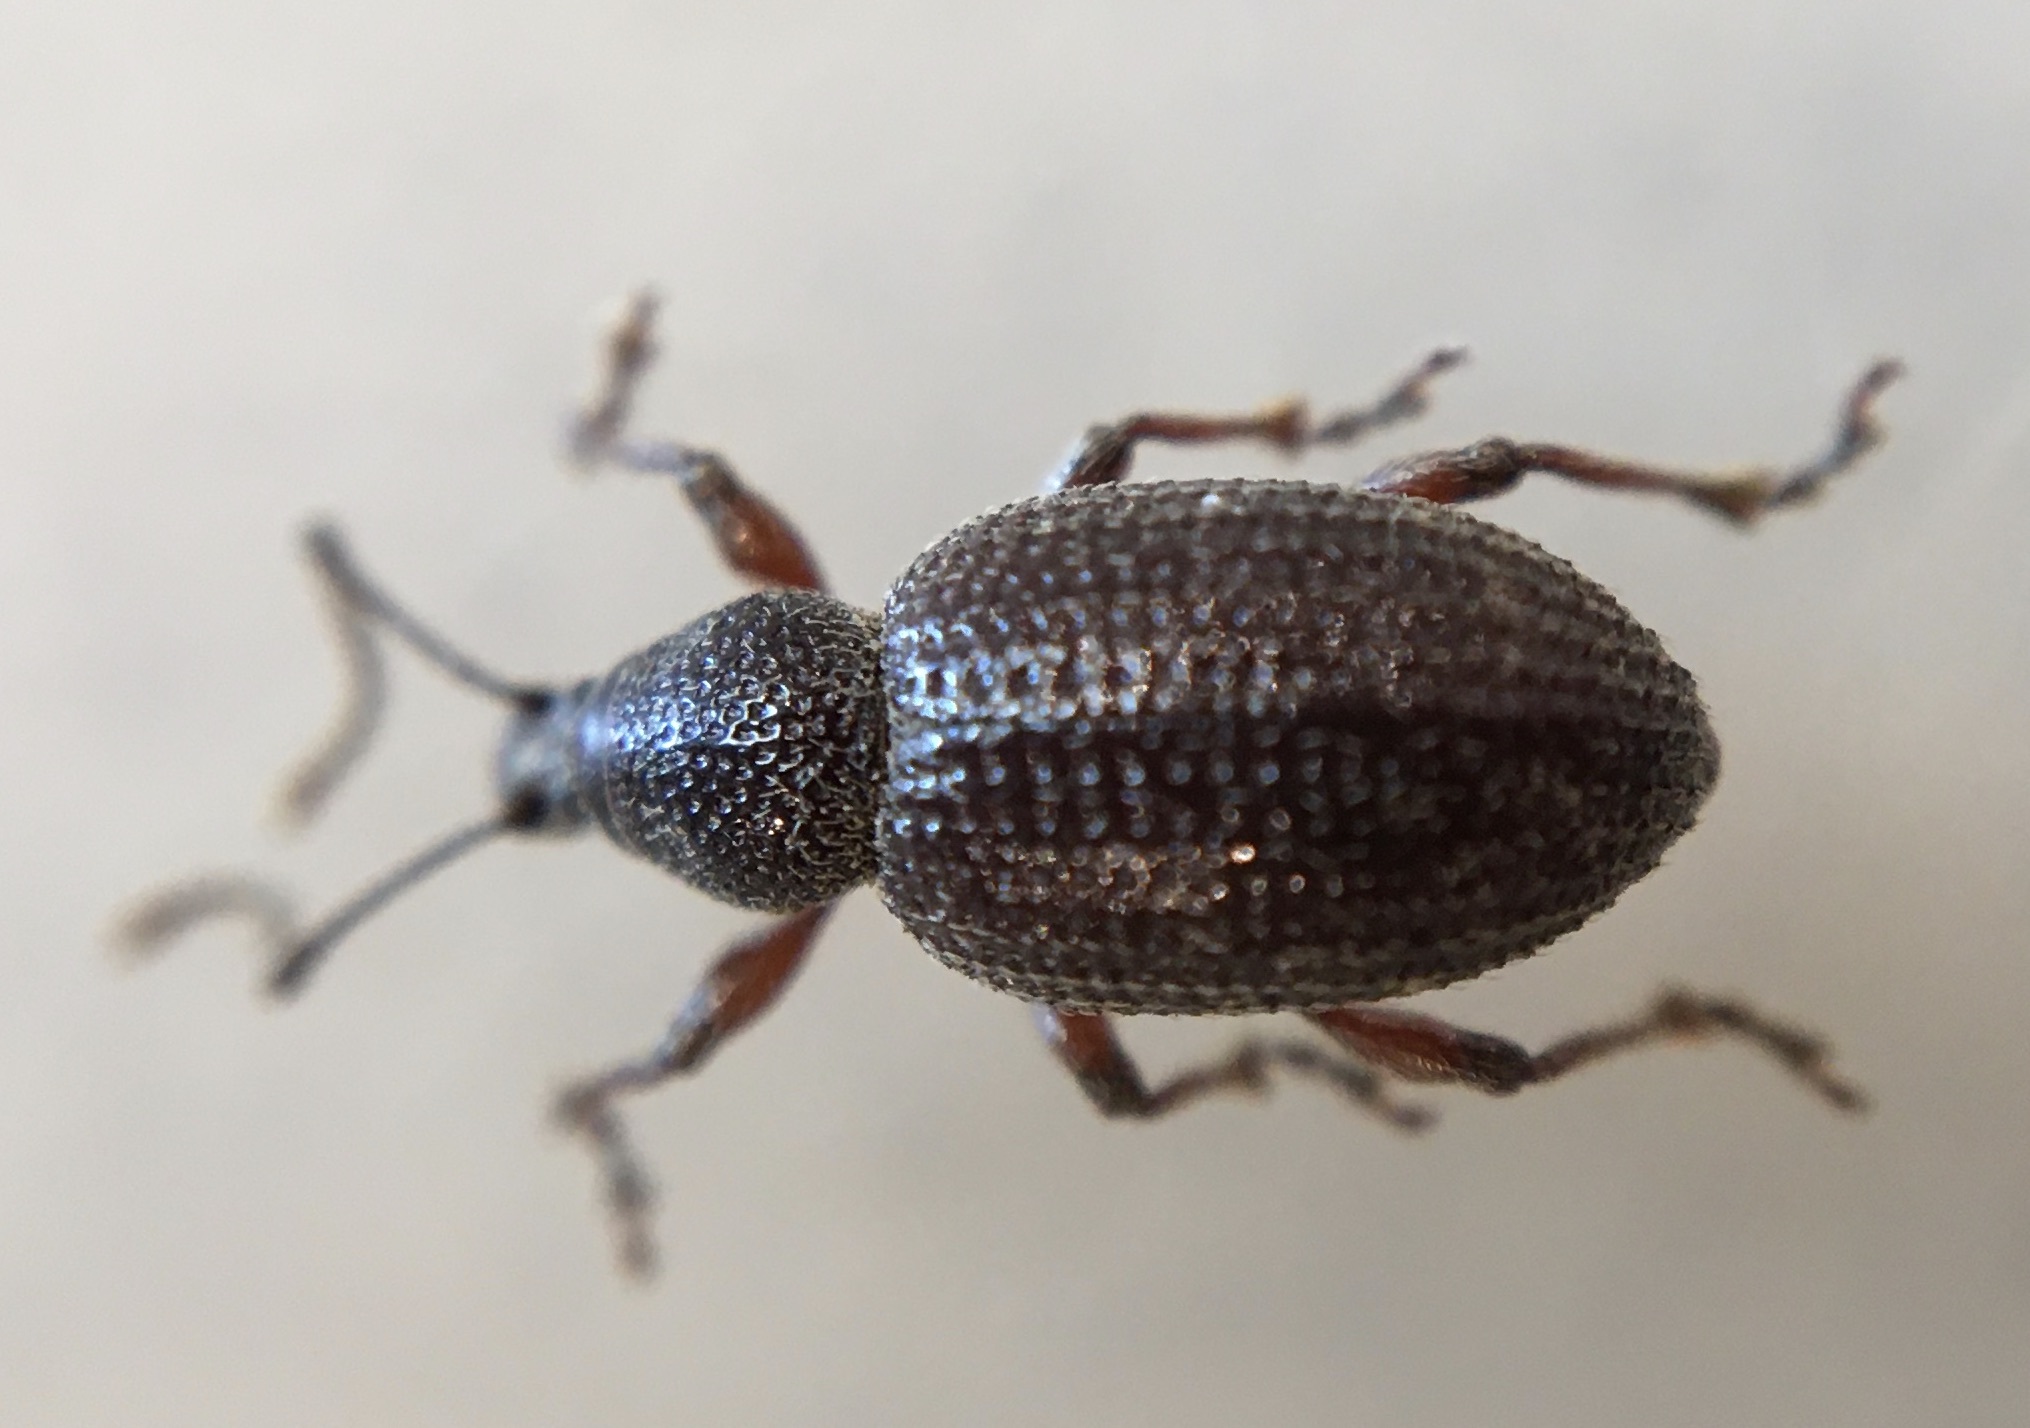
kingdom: Animalia
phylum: Arthropoda
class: Insecta
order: Coleoptera
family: Curculionidae
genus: Otiorhynchus
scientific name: Otiorhynchus cribricollis
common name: Weevil
